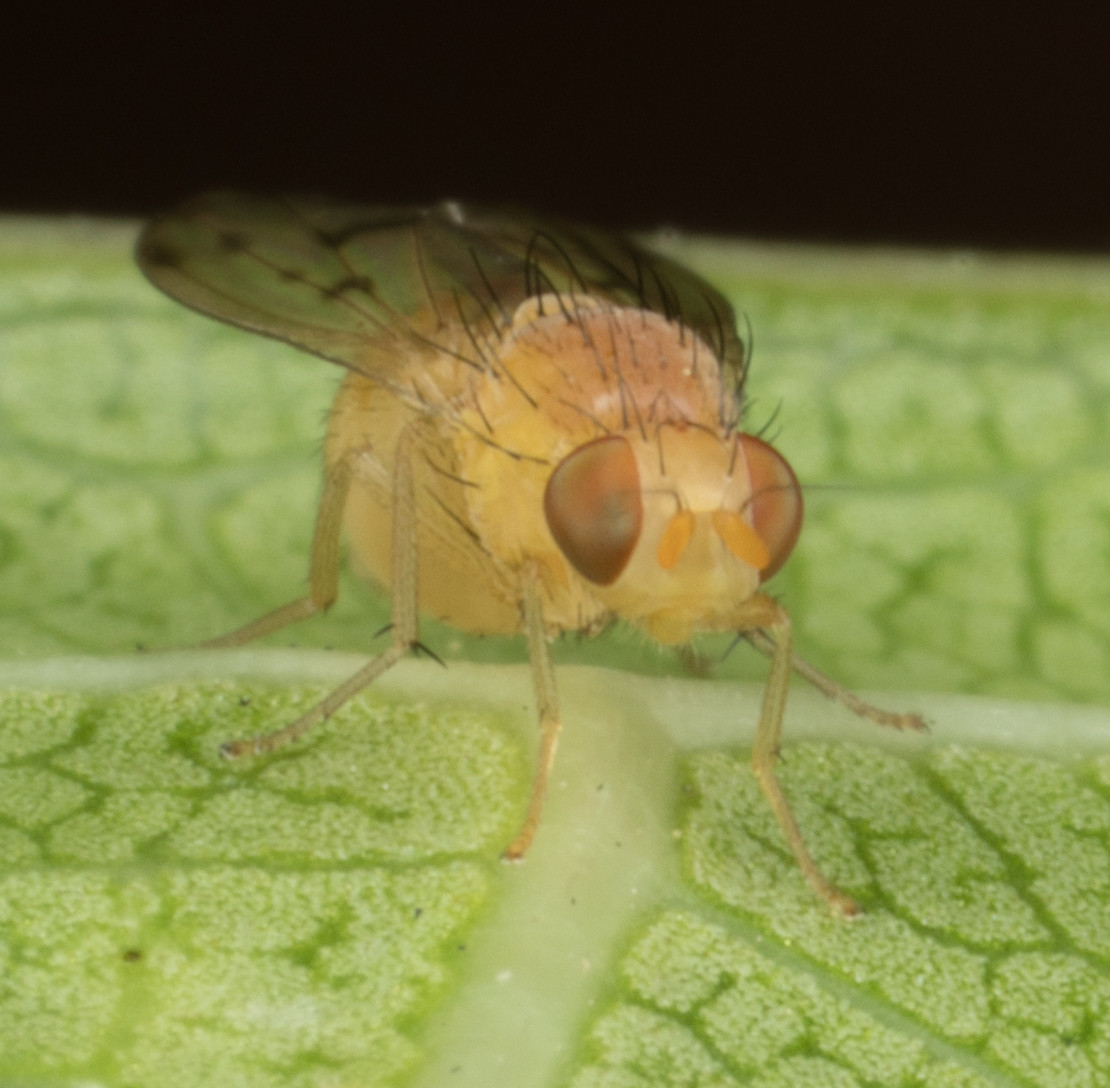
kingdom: Animalia
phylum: Arthropoda
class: Insecta
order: Diptera
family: Lauxaniidae
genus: Homoneura
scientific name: Homoneura occidentalis
